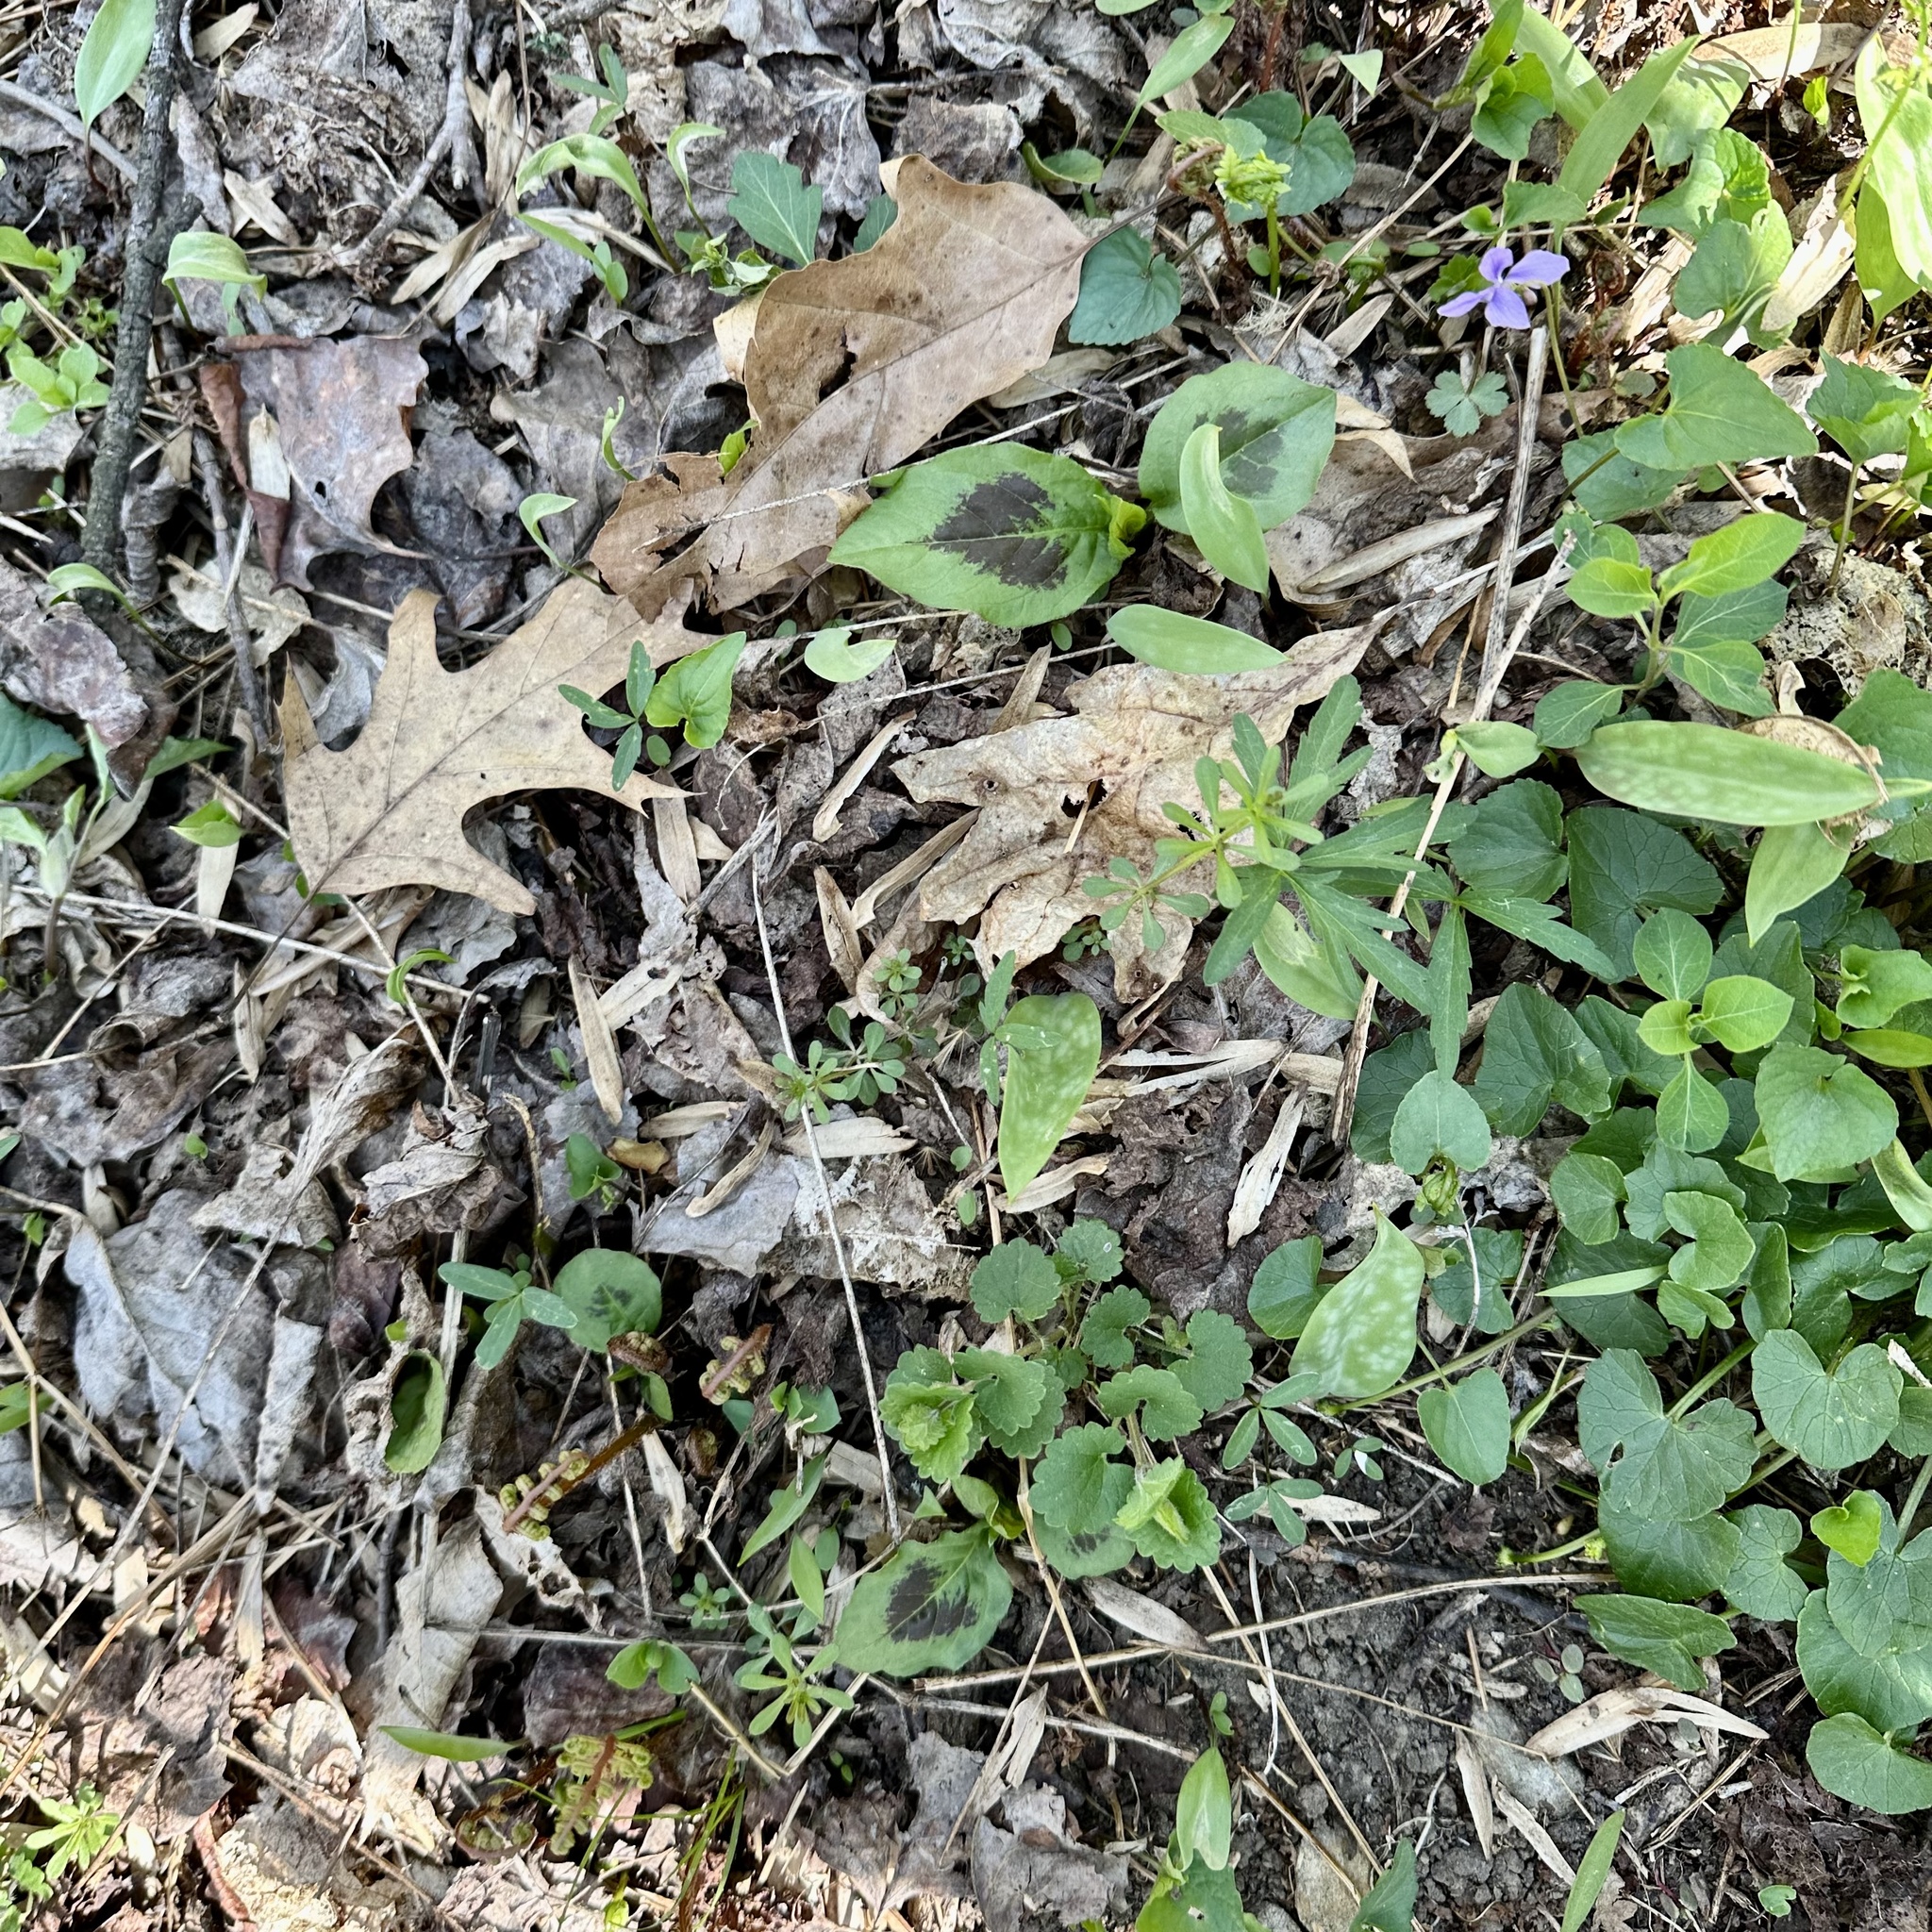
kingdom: Plantae
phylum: Tracheophyta
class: Magnoliopsida
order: Caryophyllales
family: Polygonaceae
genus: Persicaria
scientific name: Persicaria virginiana
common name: Jumpseed
